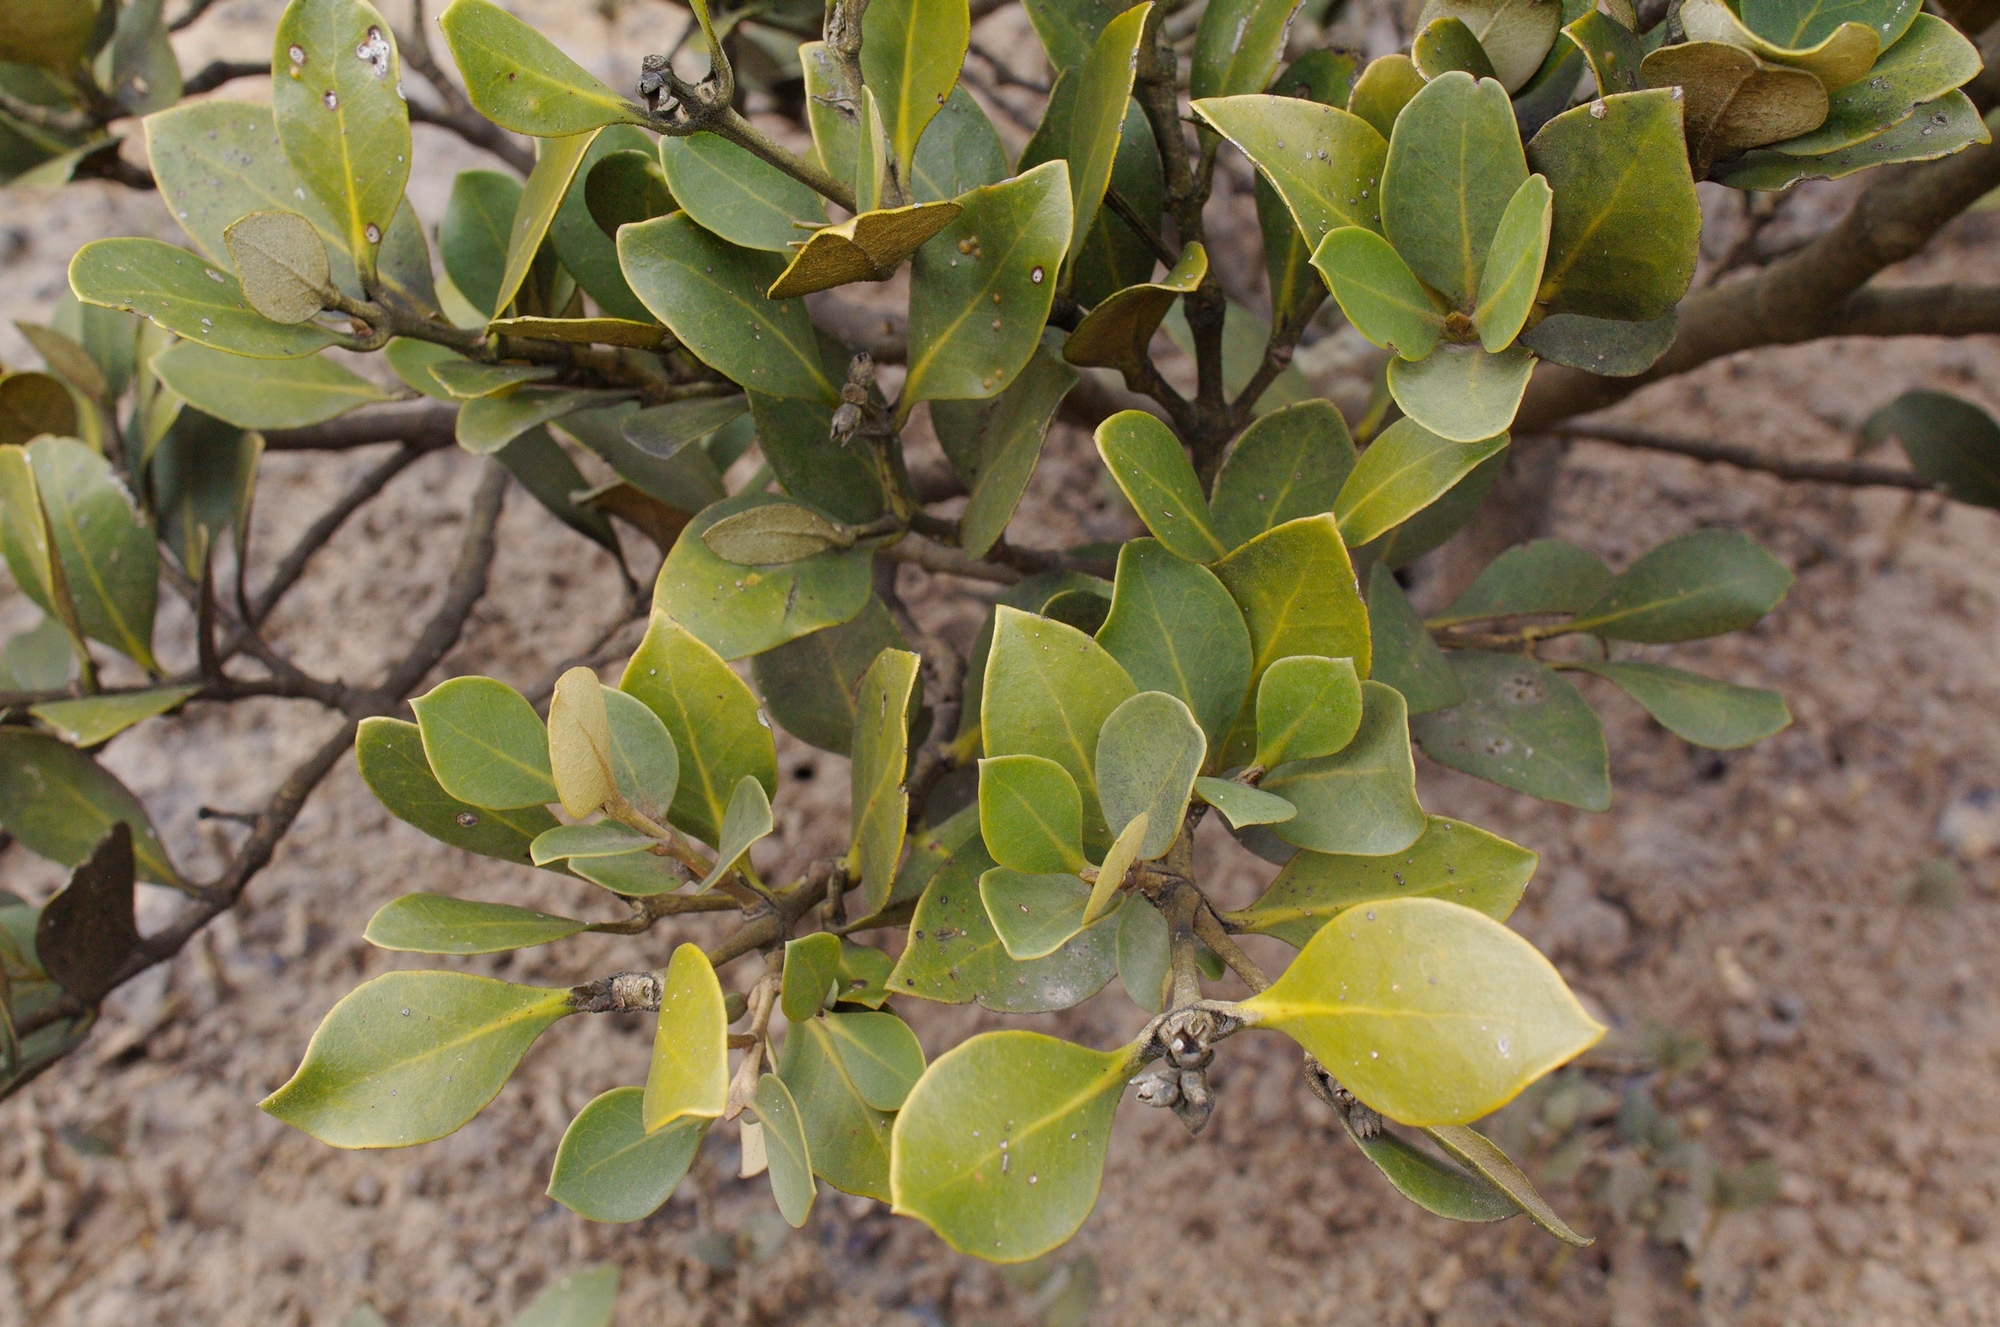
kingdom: Plantae
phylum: Tracheophyta
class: Magnoliopsida
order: Lamiales
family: Acanthaceae
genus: Avicennia
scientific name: Avicennia marina
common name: Gray mangrove
